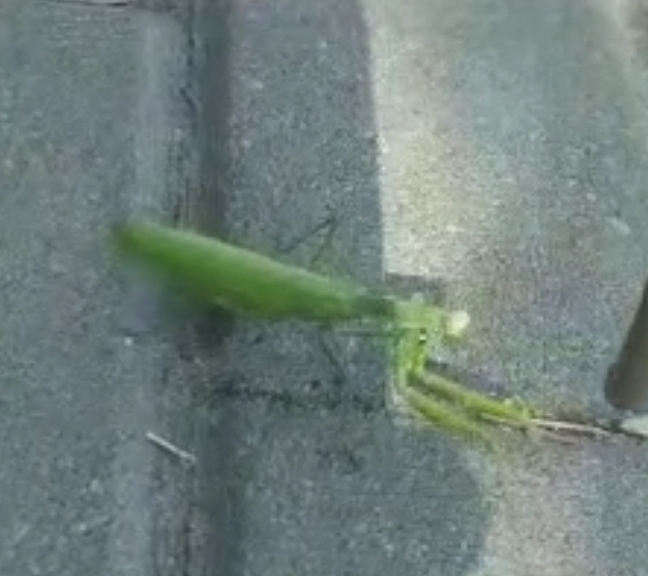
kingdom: Animalia
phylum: Arthropoda
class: Insecta
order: Mantodea
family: Mantidae
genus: Mantis
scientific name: Mantis religiosa
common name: Praying mantis
